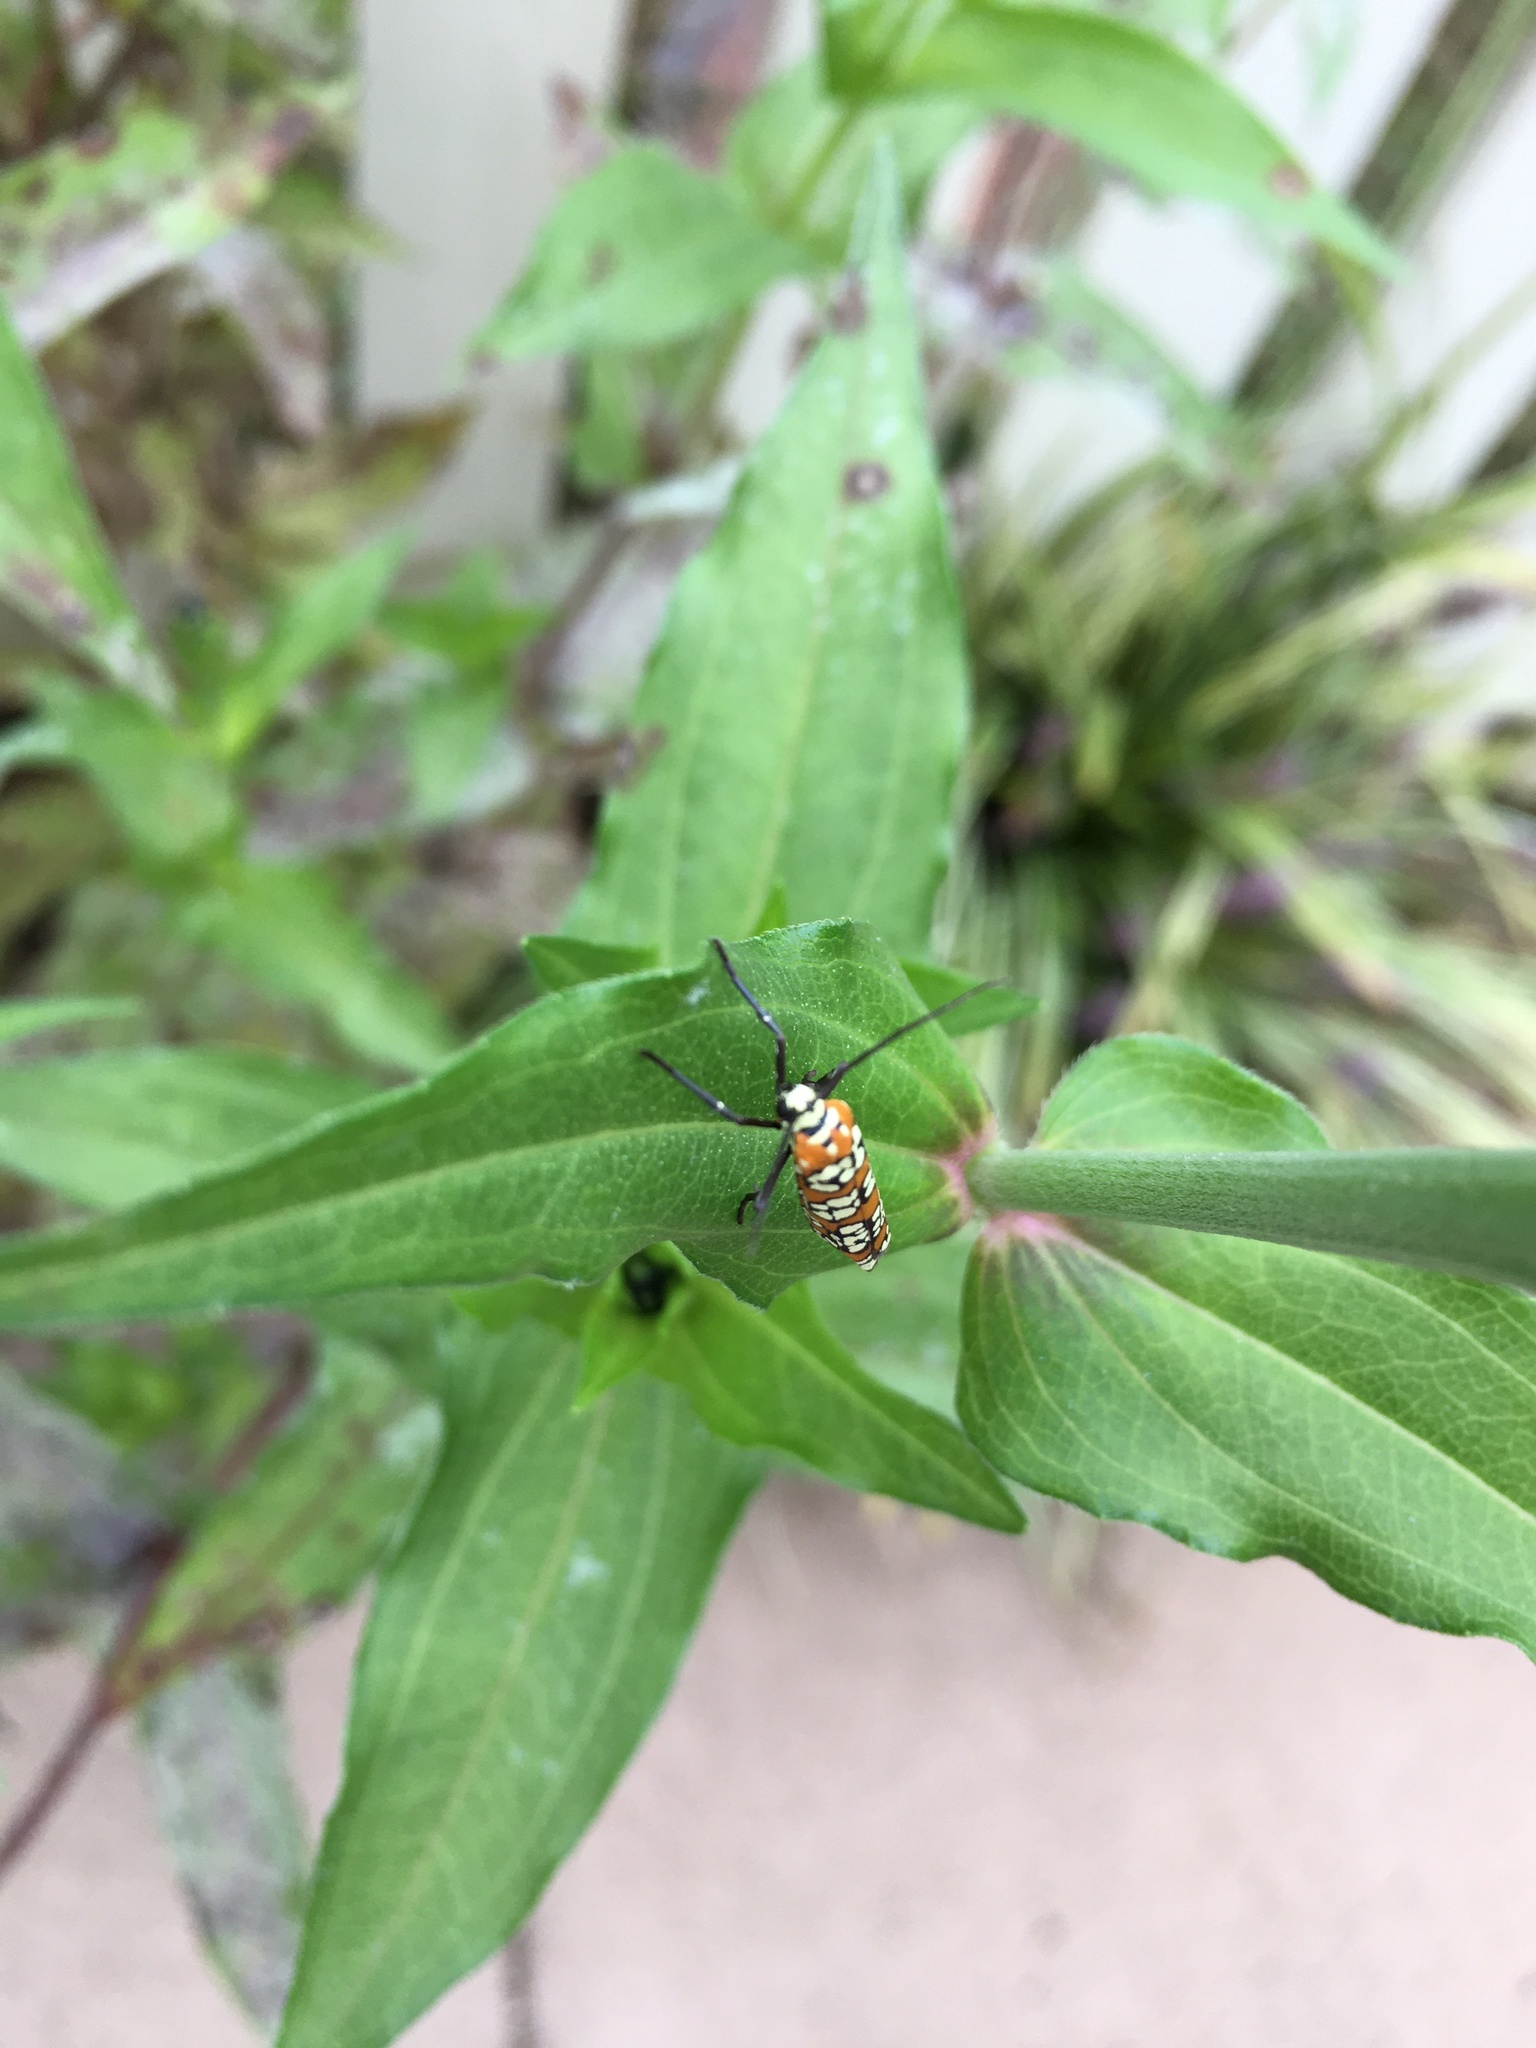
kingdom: Animalia
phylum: Arthropoda
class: Insecta
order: Lepidoptera
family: Attevidae
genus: Atteva
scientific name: Atteva punctella
